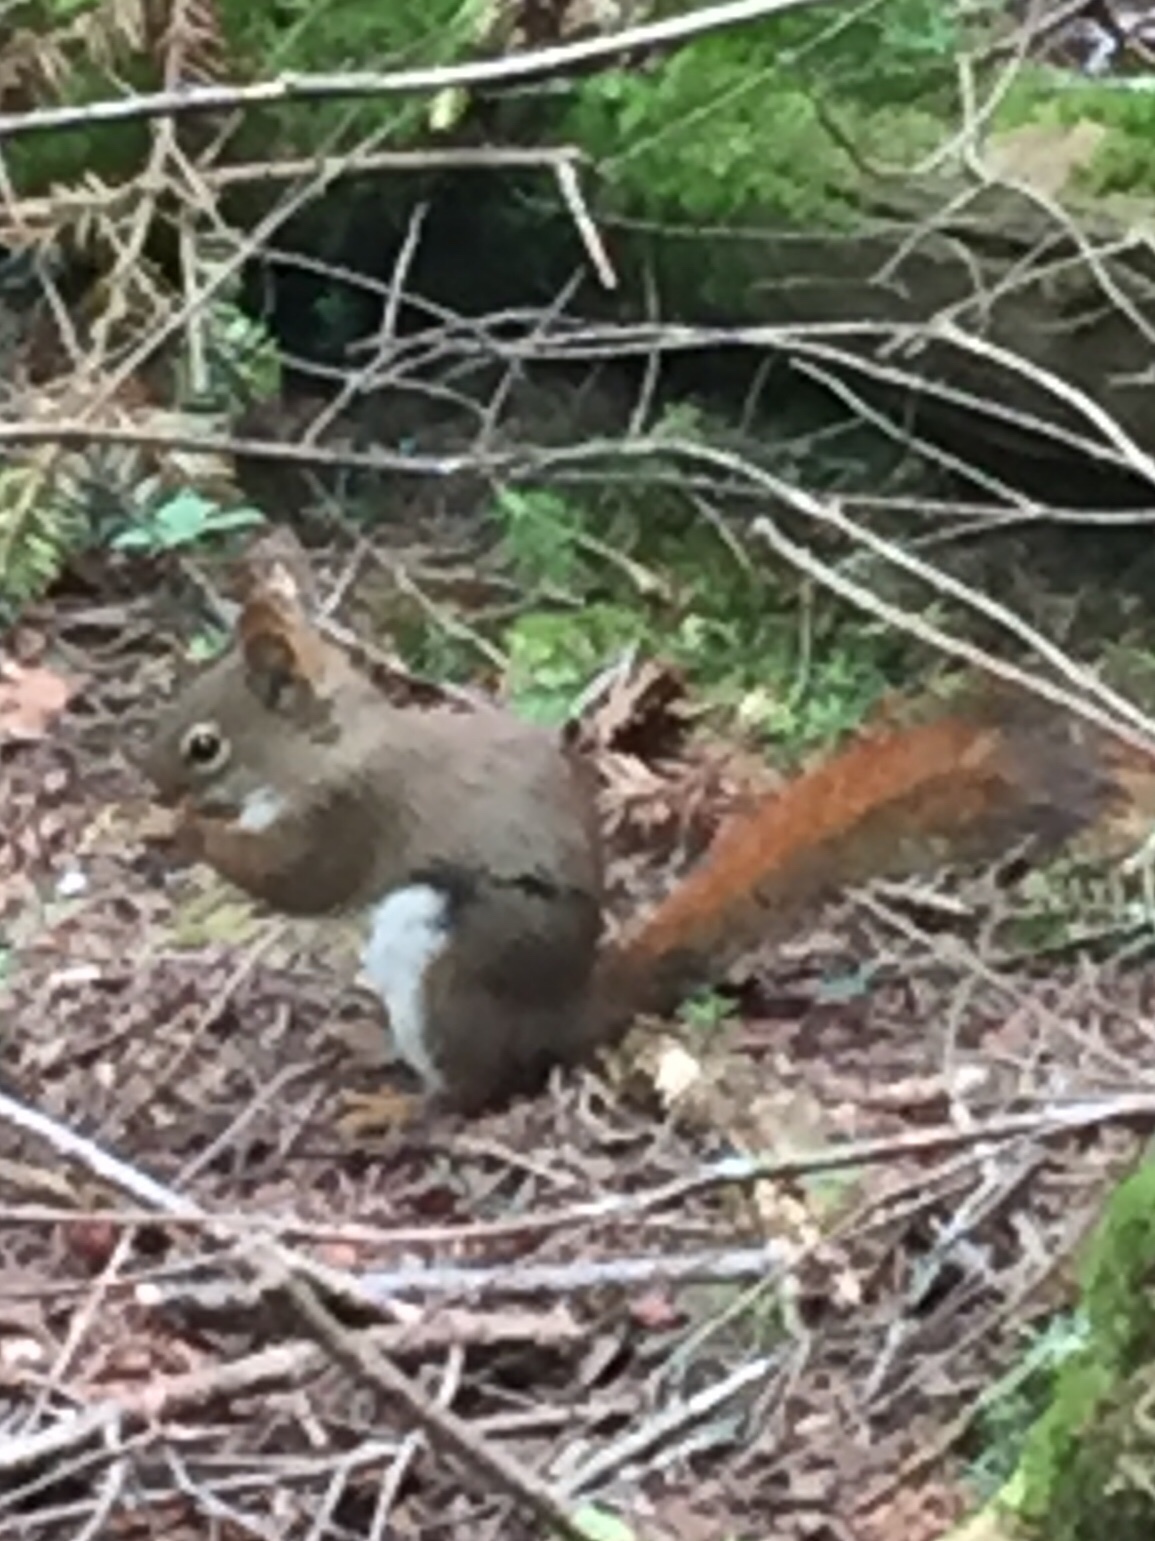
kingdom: Animalia
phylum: Chordata
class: Mammalia
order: Rodentia
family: Sciuridae
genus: Tamiasciurus
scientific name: Tamiasciurus hudsonicus
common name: Red squirrel
